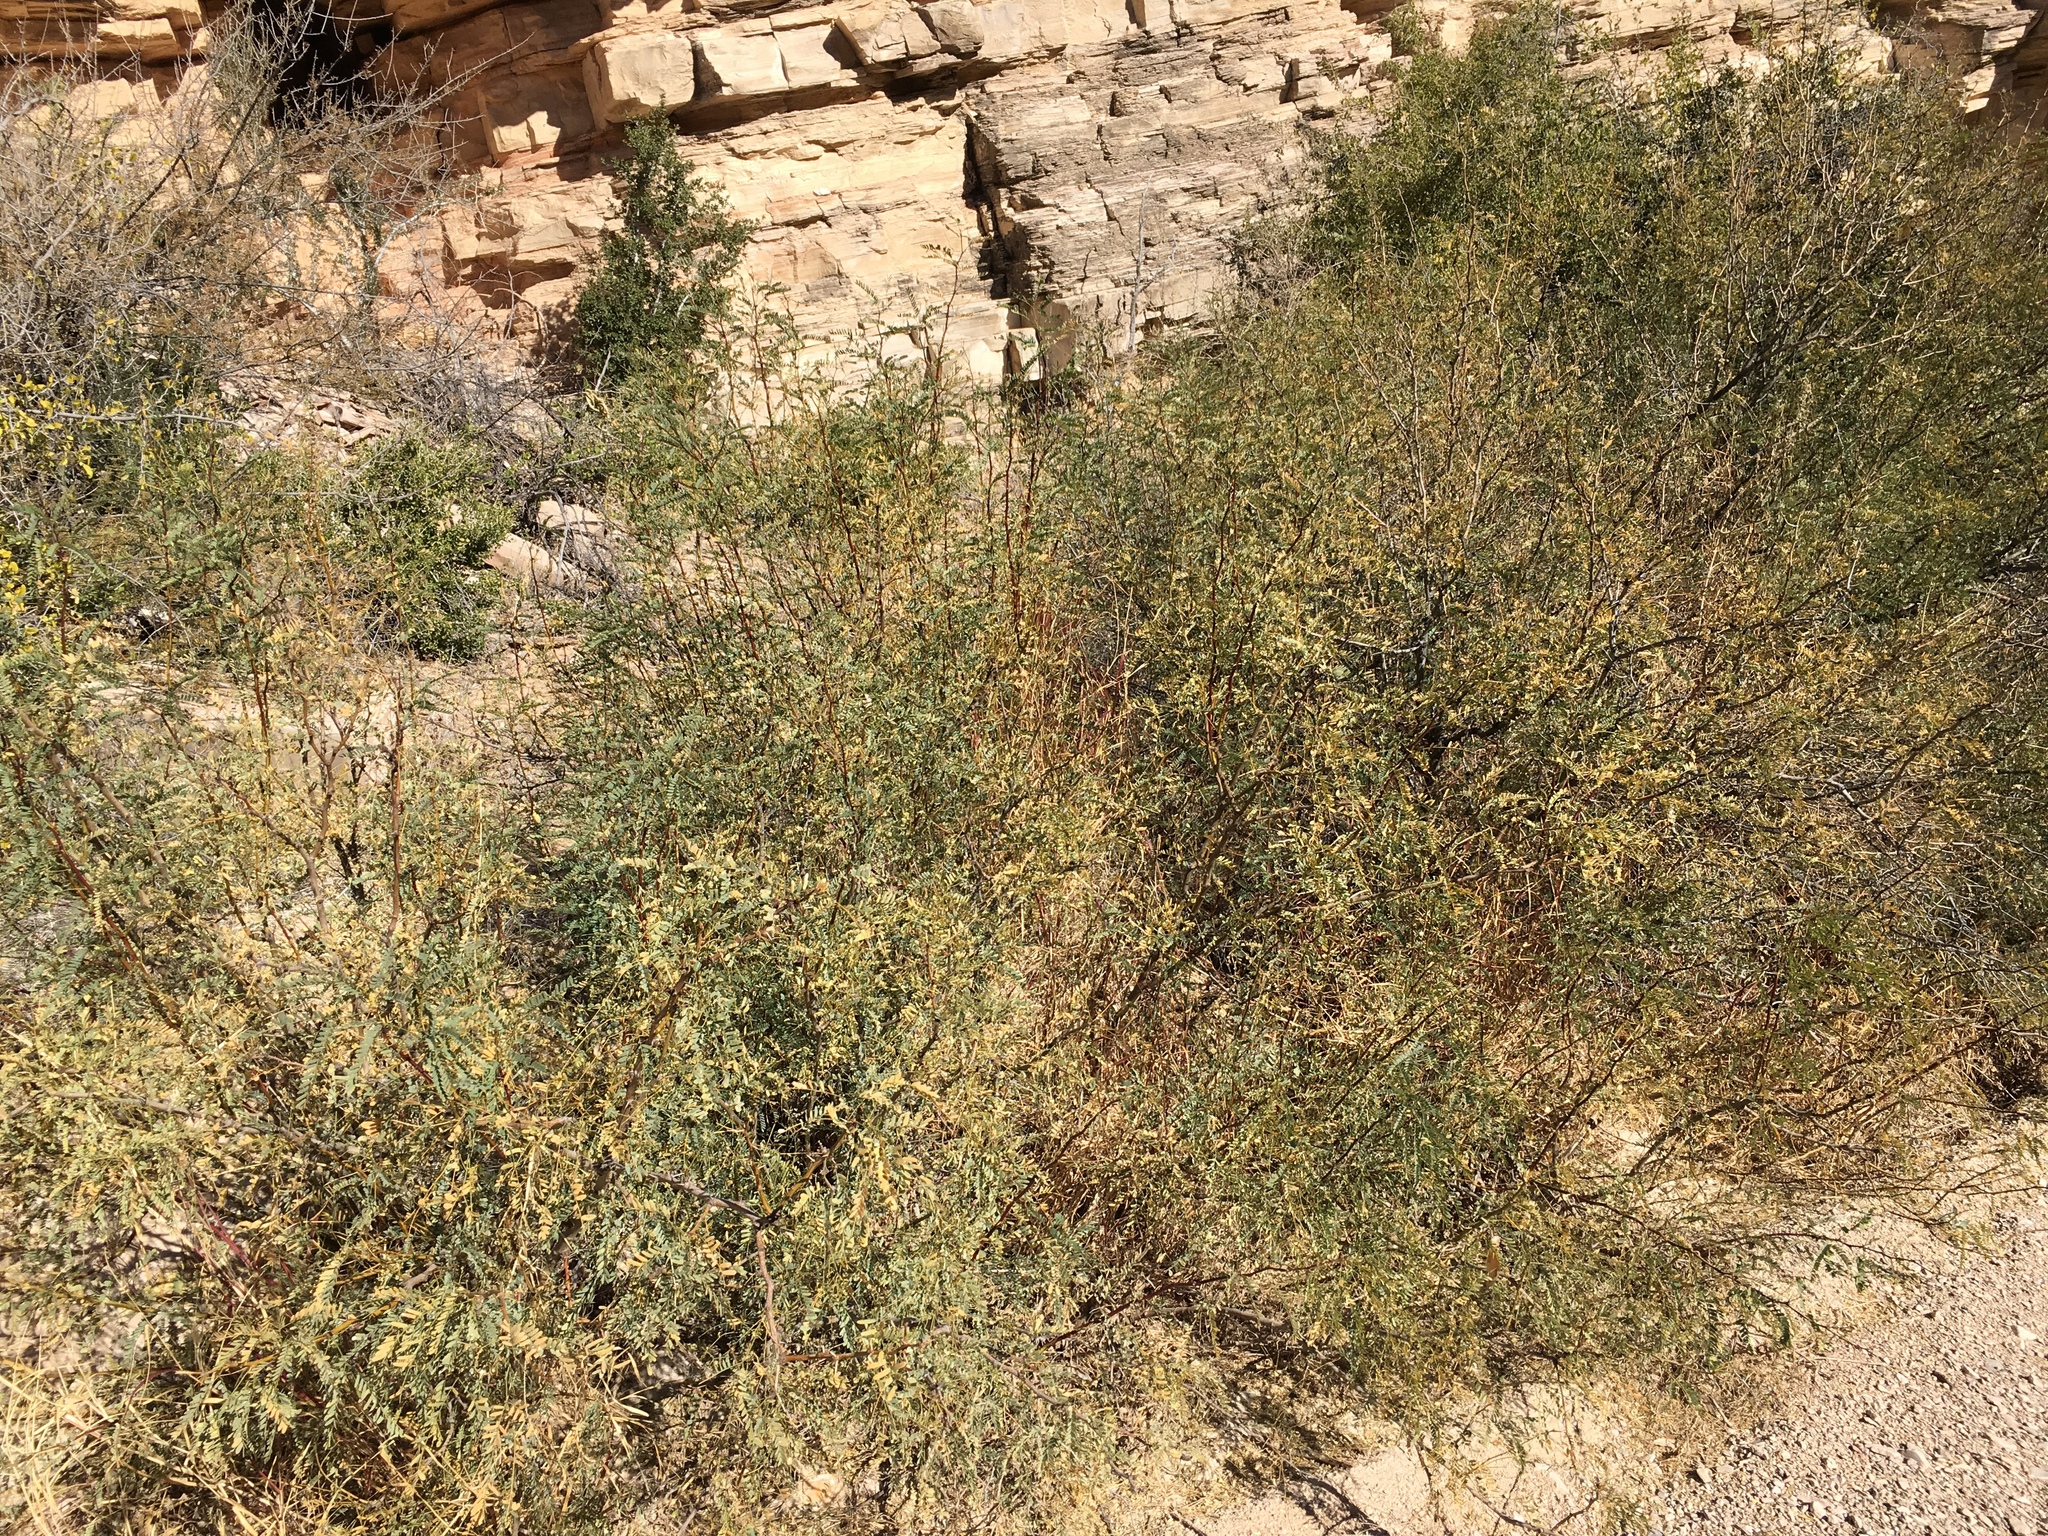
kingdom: Plantae
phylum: Tracheophyta
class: Magnoliopsida
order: Fabales
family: Fabaceae
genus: Prosopis
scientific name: Prosopis glandulosa
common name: Honey mesquite
